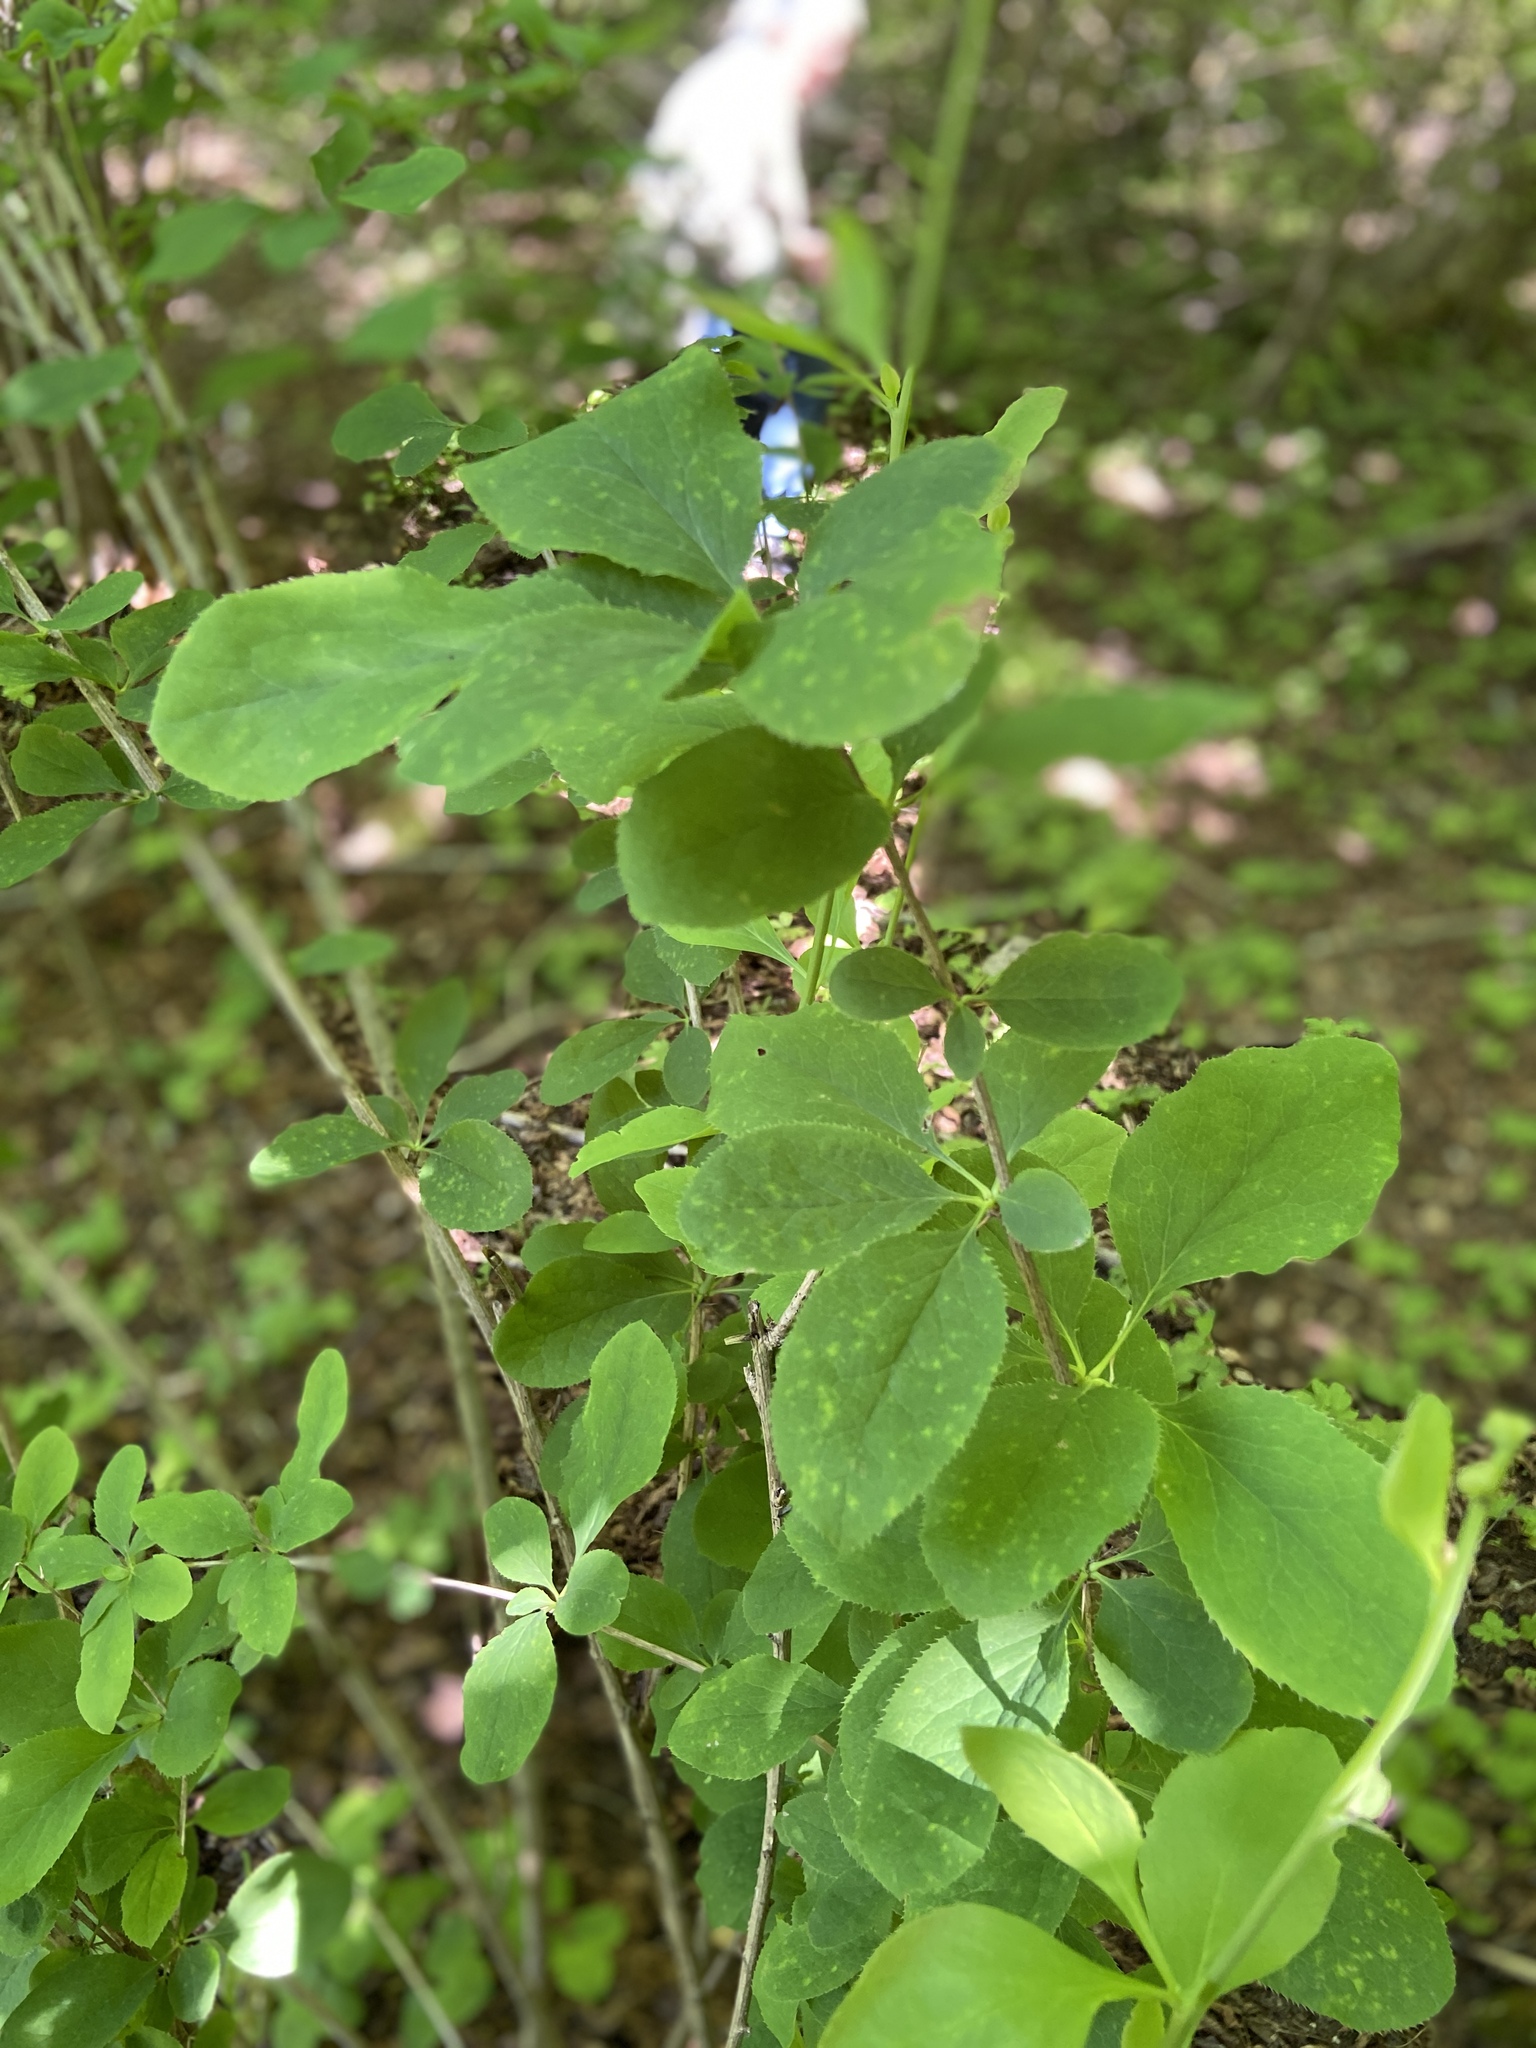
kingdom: Plantae
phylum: Tracheophyta
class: Magnoliopsida
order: Ranunculales
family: Berberidaceae
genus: Berberis
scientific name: Berberis vulgaris
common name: Barberry
